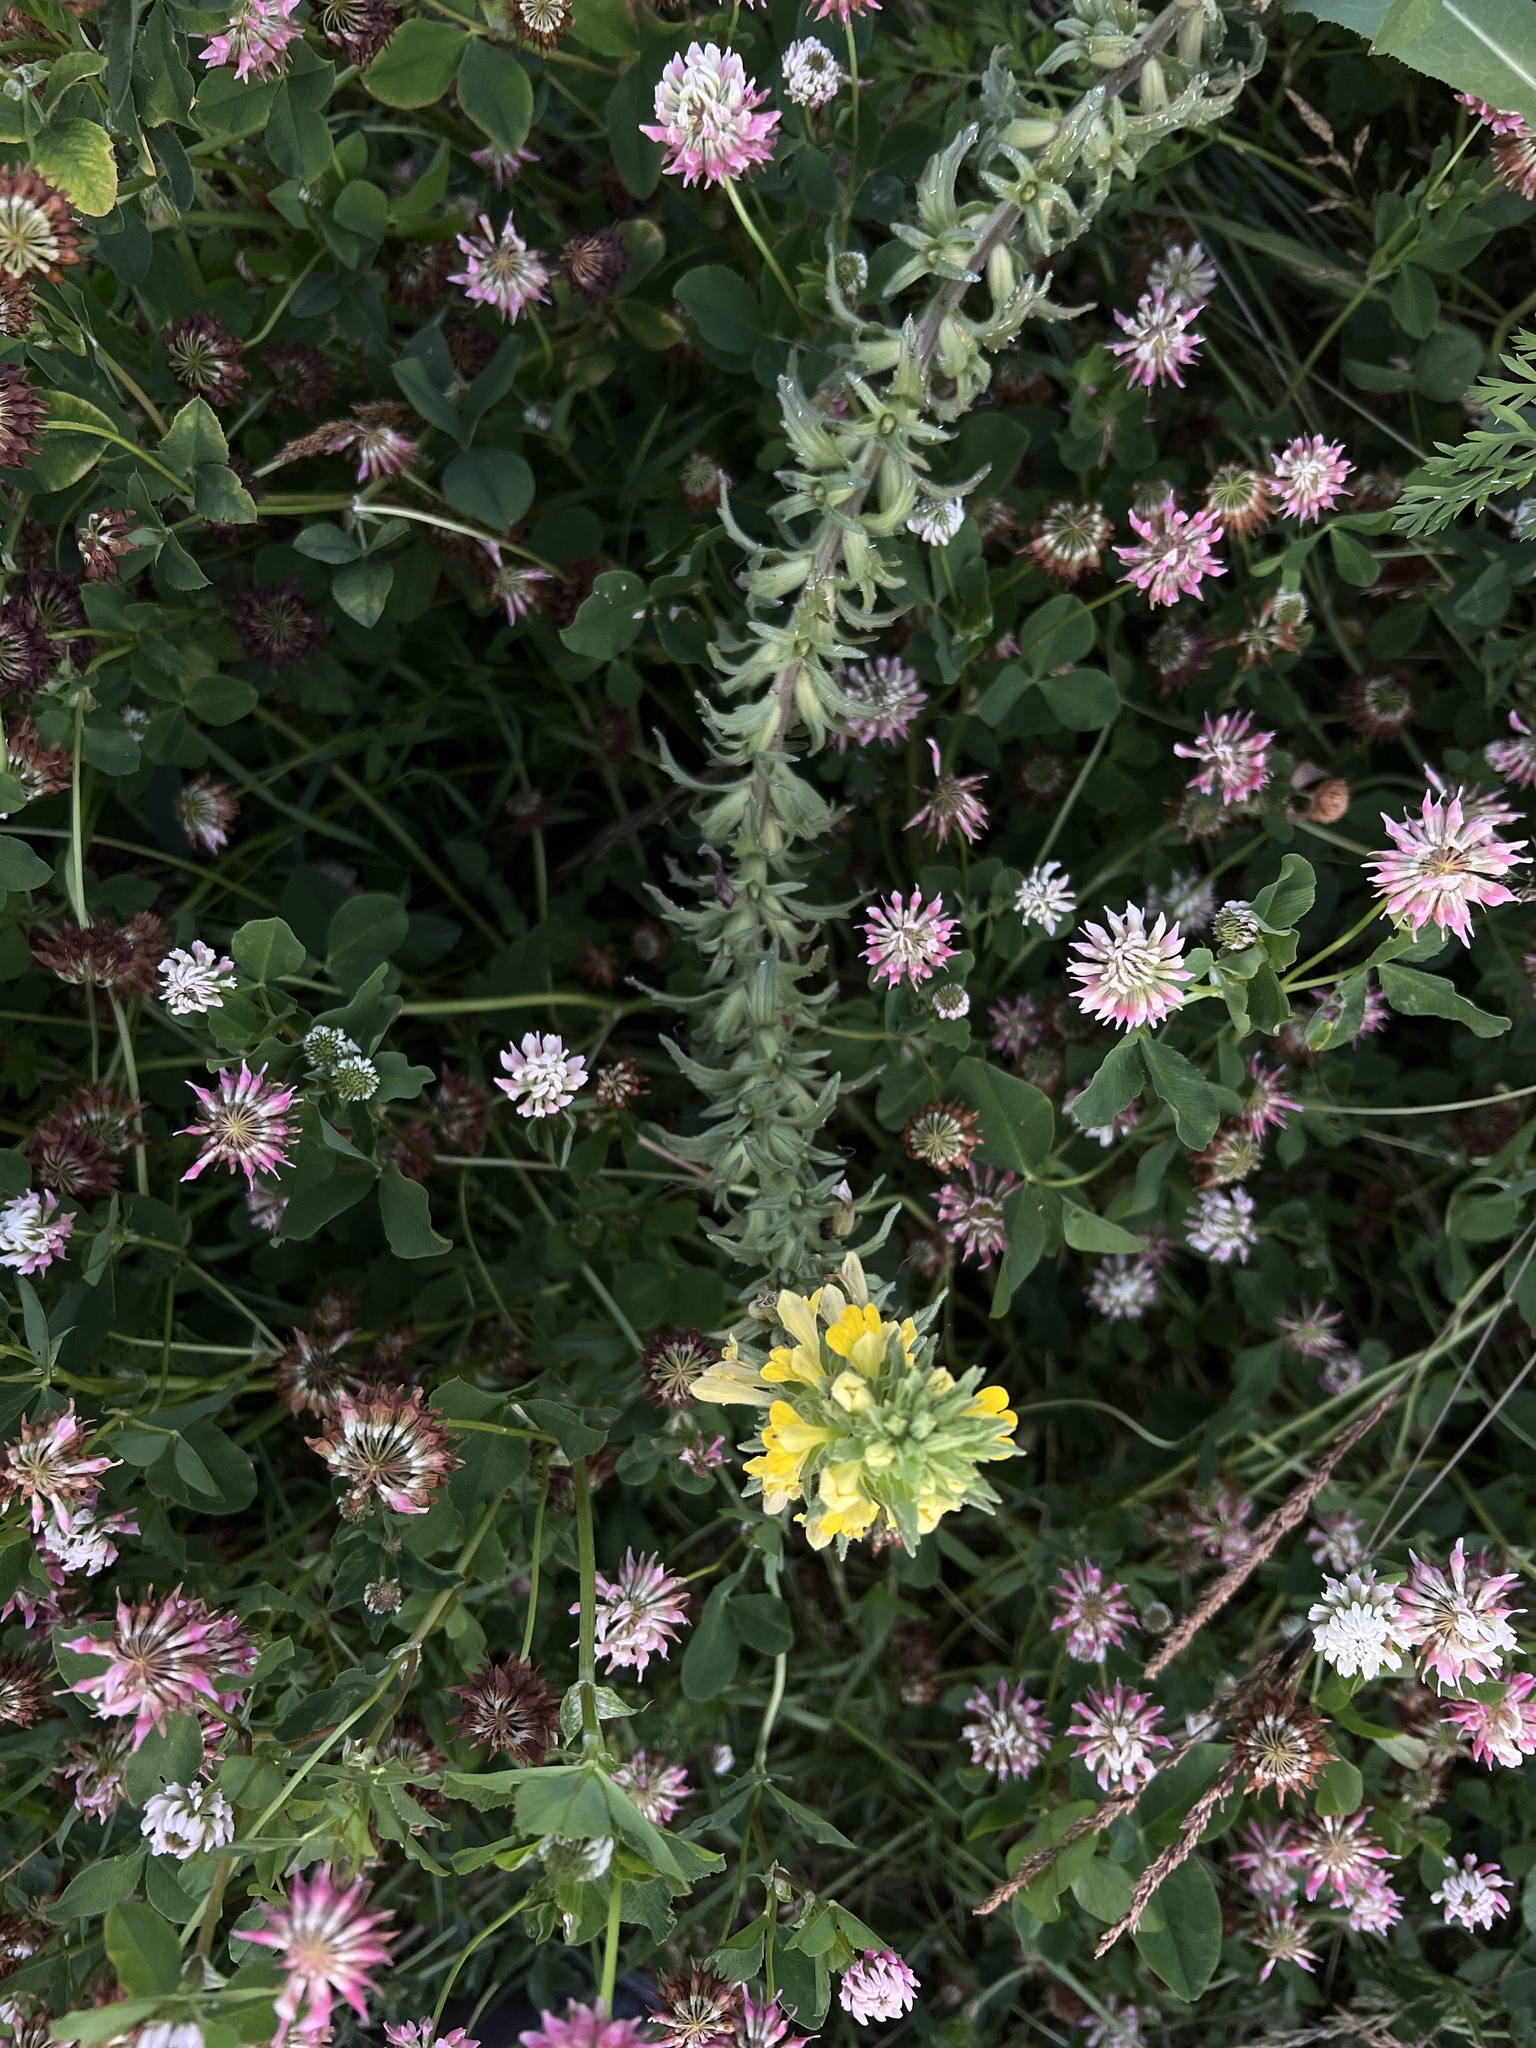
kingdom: Plantae
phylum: Tracheophyta
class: Magnoliopsida
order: Lamiales
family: Orobanchaceae
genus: Bellardia
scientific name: Bellardia viscosa
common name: Sticky parentucellia
